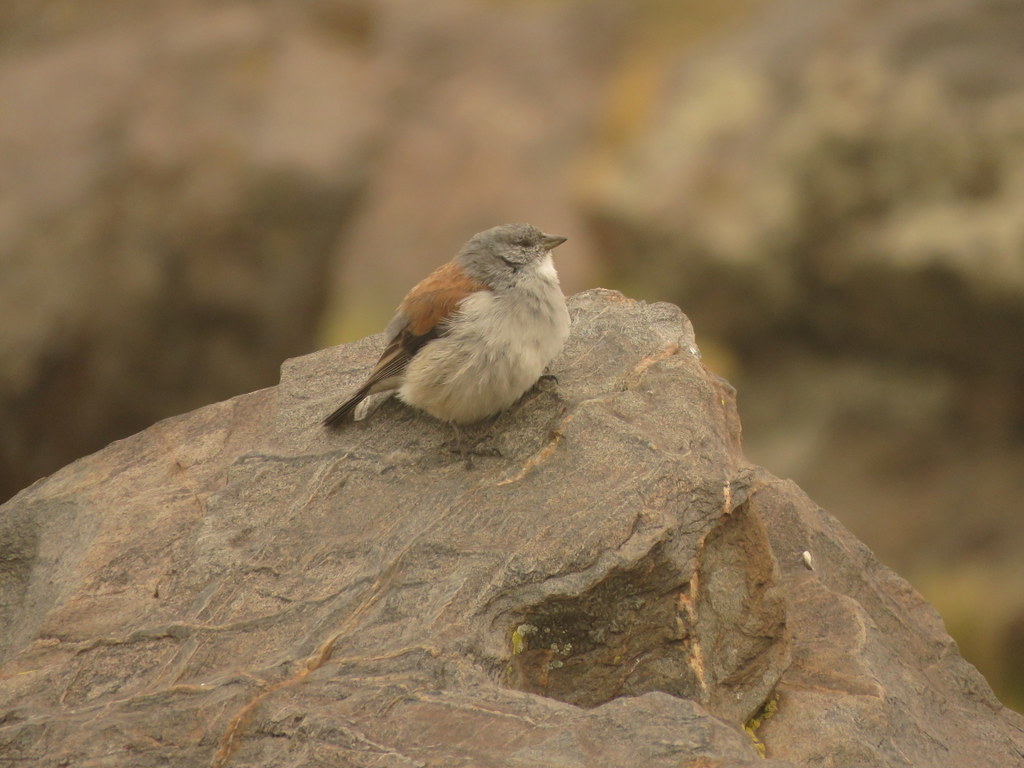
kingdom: Animalia
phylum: Chordata
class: Aves
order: Passeriformes
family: Thraupidae
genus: Idiopsar
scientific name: Idiopsar dorsalis
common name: Red-backed sierra finch
